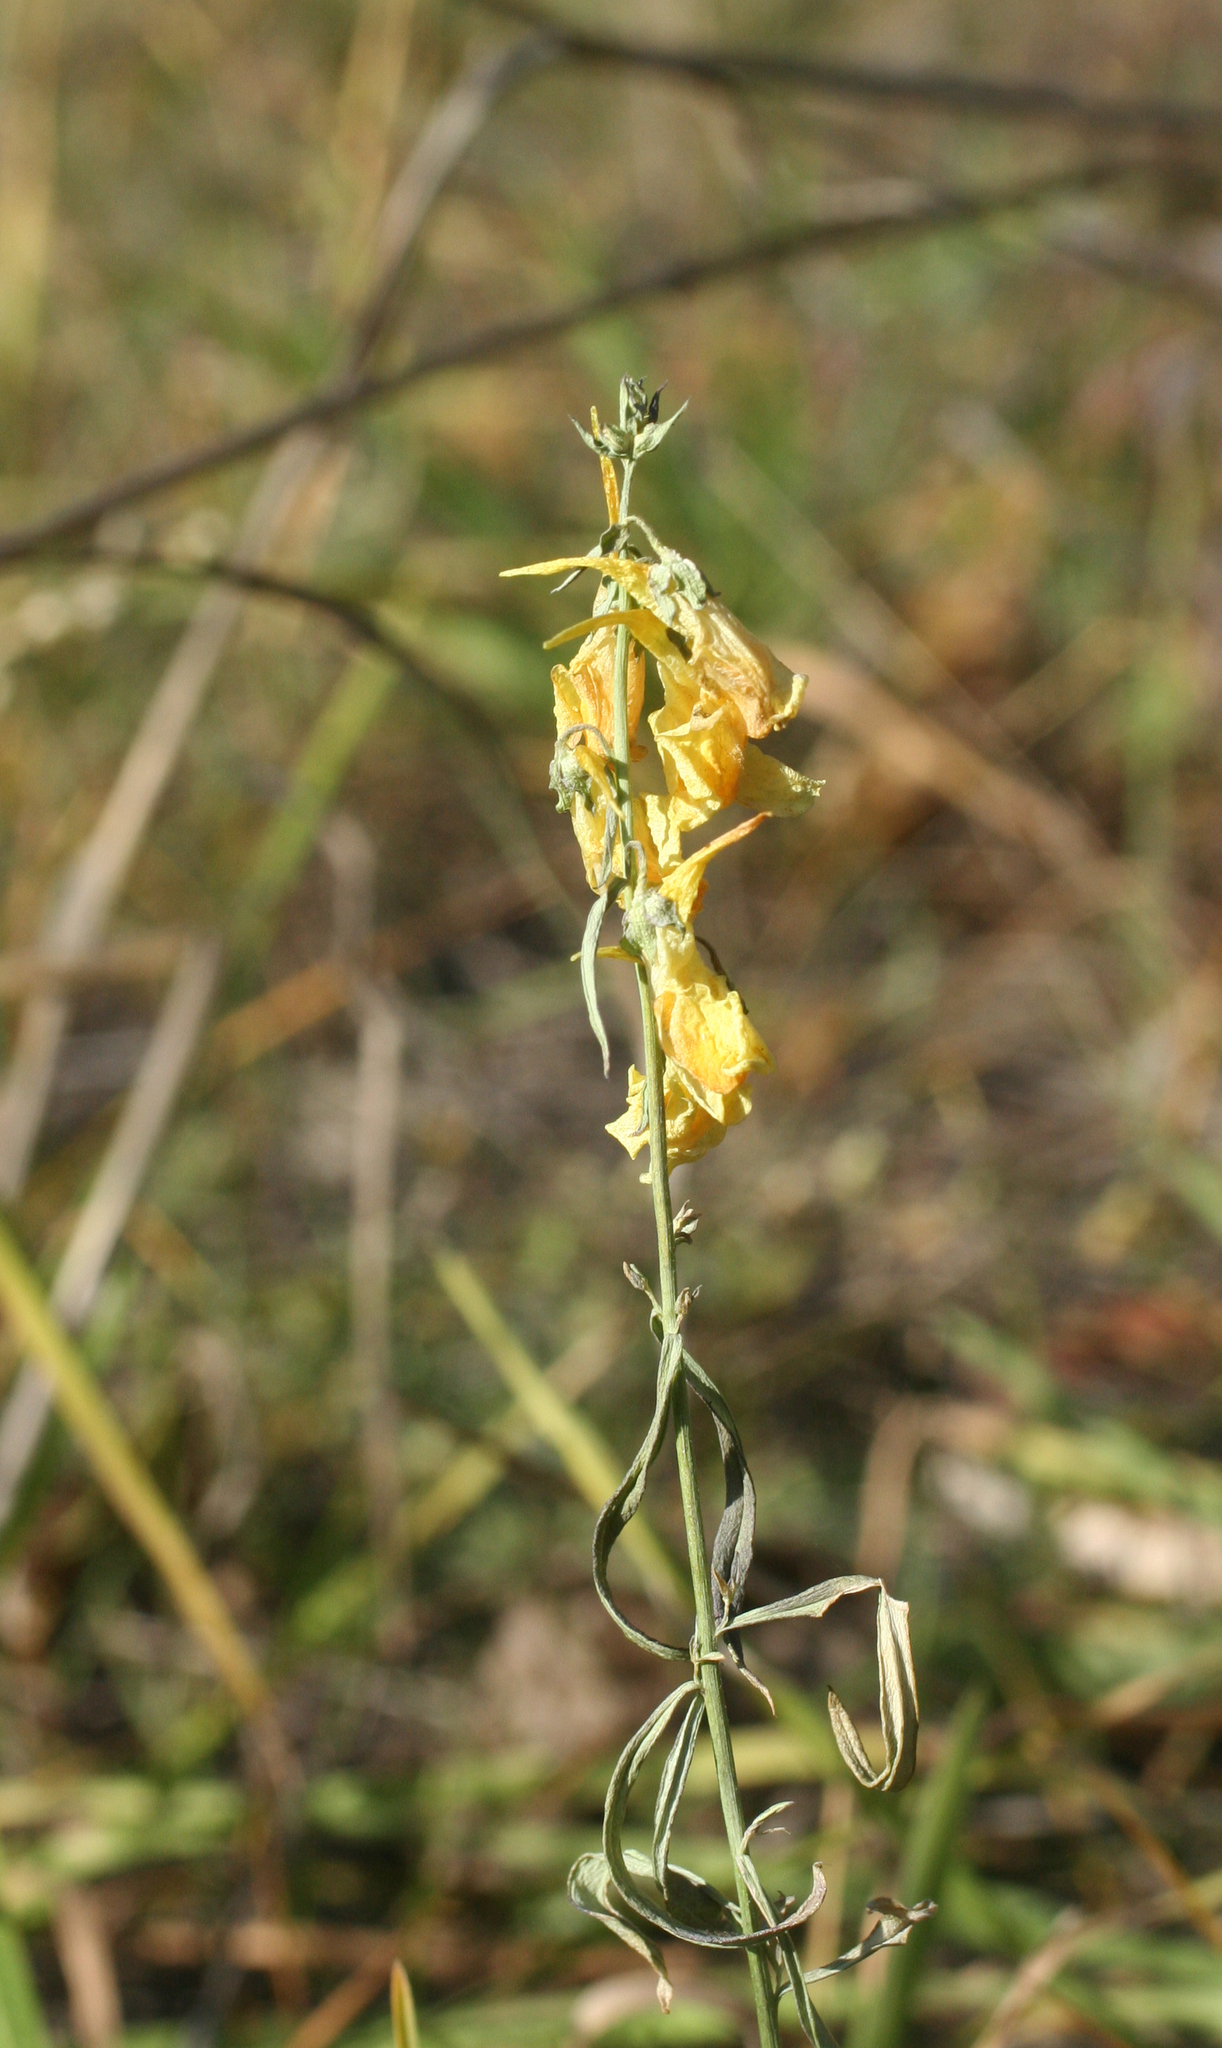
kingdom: Plantae
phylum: Tracheophyta
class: Magnoliopsida
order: Lamiales
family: Plantaginaceae
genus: Linaria
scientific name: Linaria vulgaris
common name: Butter and eggs
